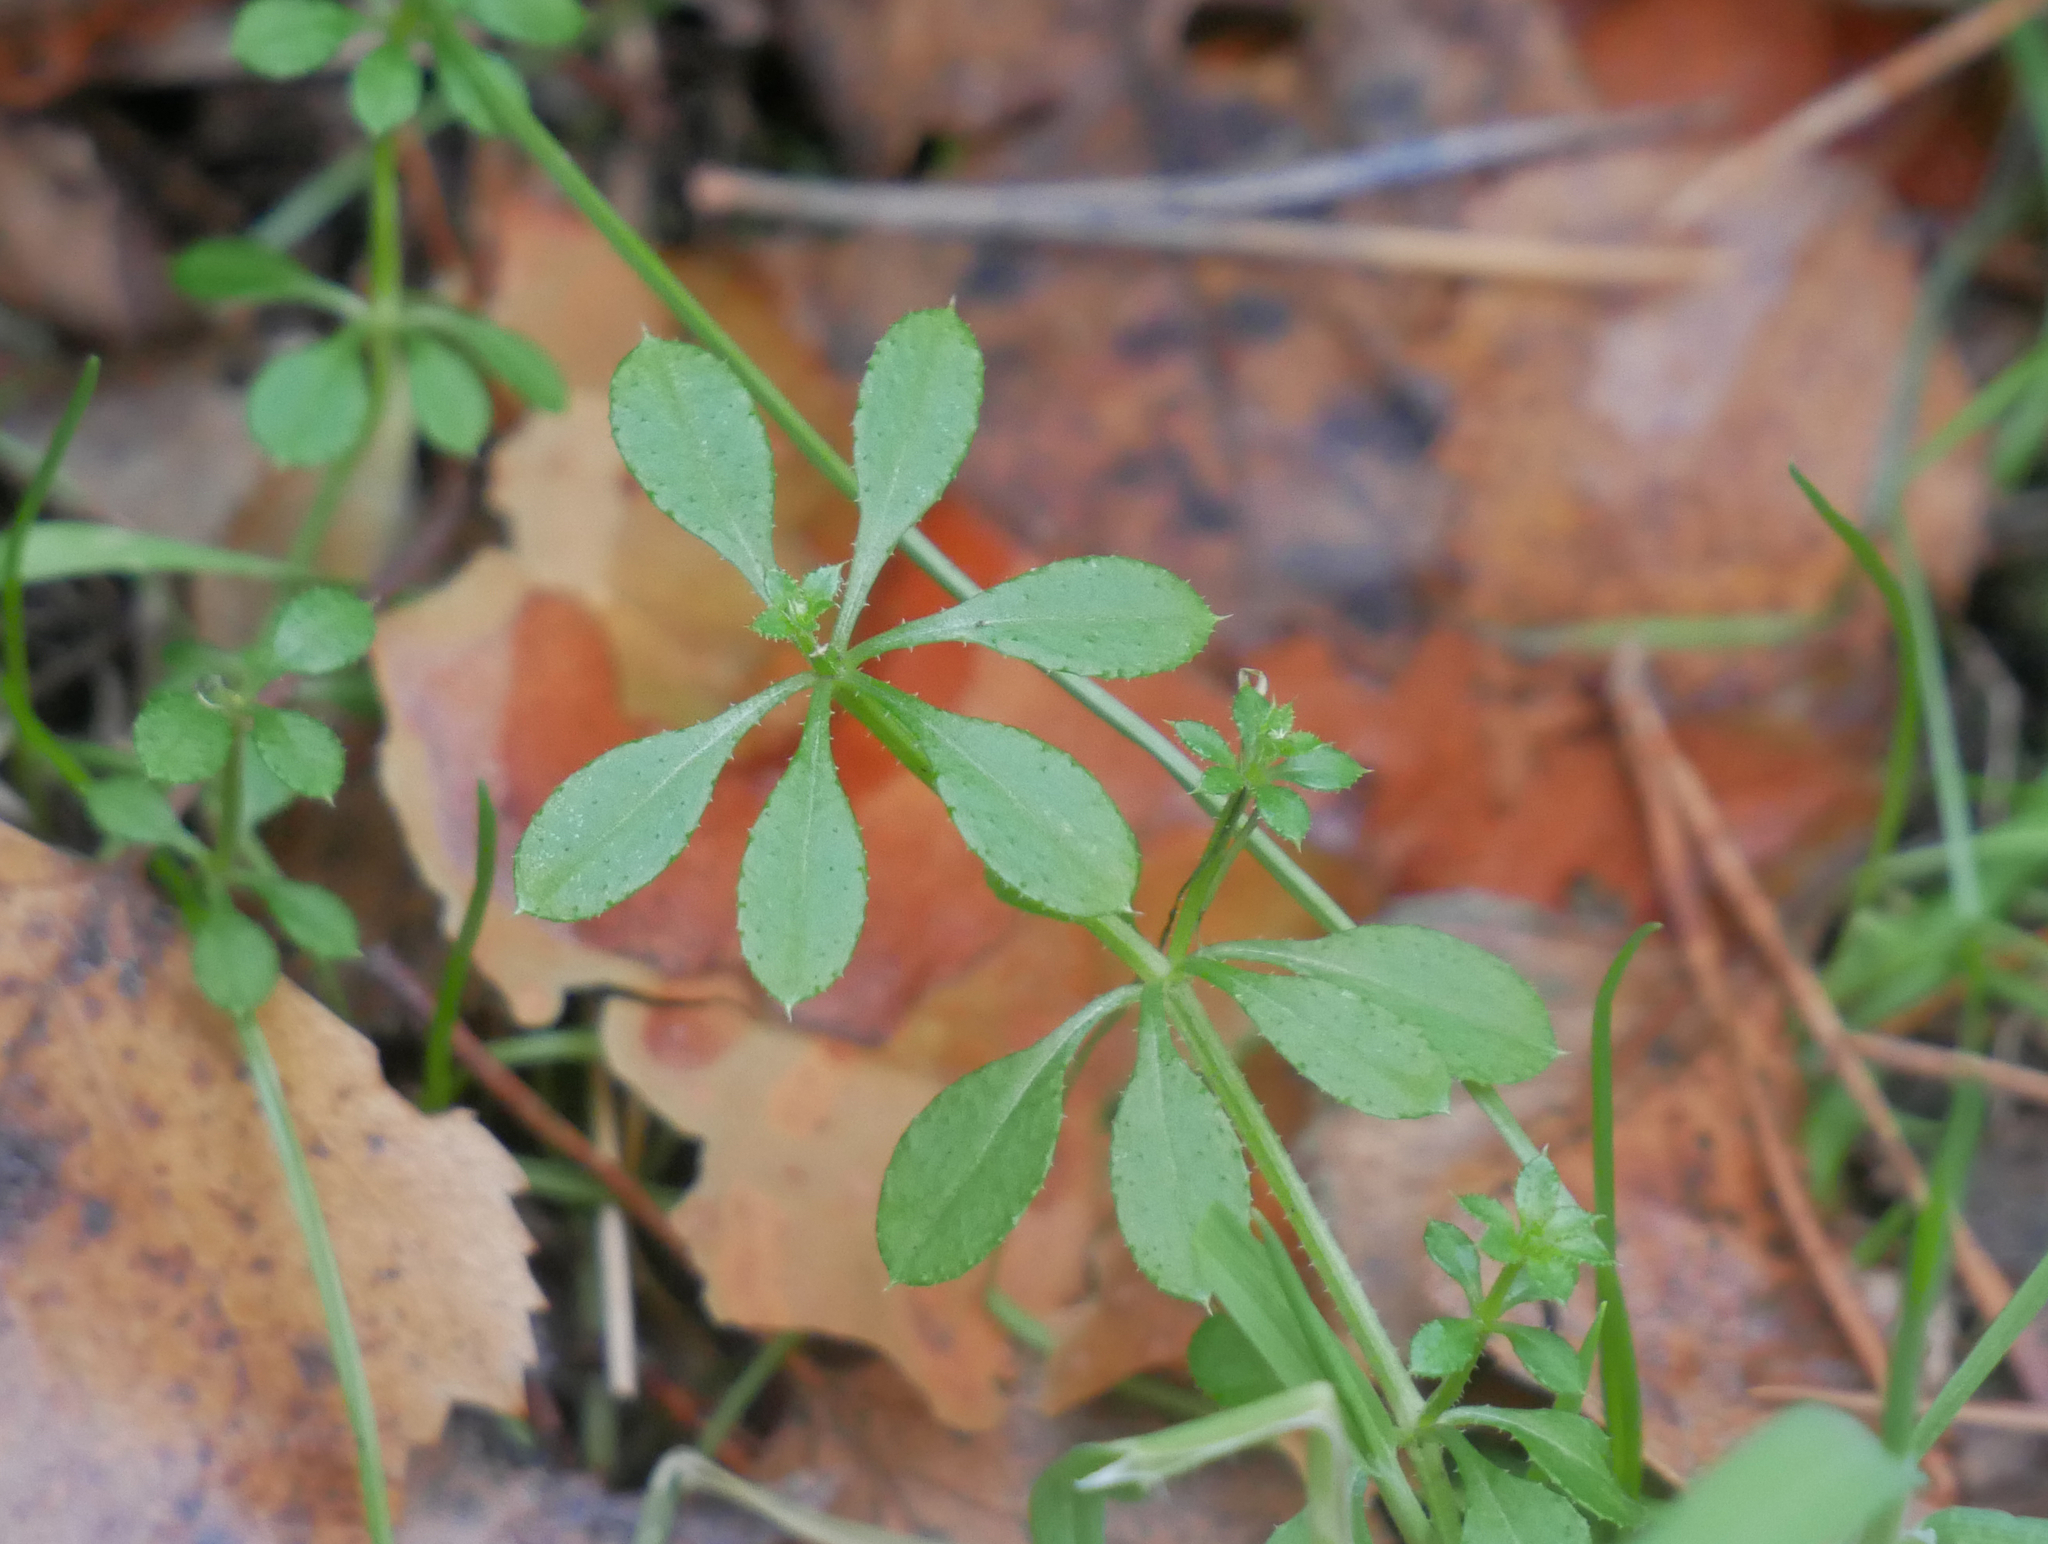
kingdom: Plantae
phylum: Tracheophyta
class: Magnoliopsida
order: Gentianales
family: Rubiaceae
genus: Galium
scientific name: Galium aparine
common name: Cleavers
